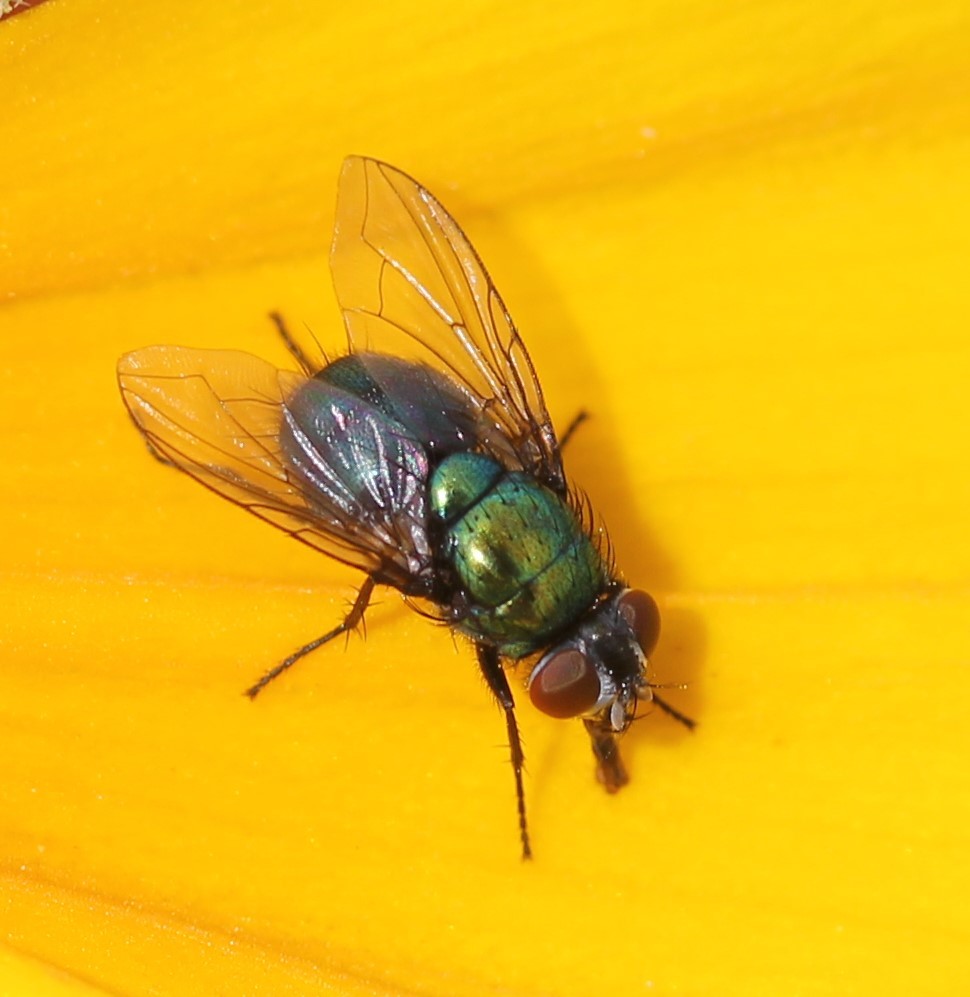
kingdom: Animalia
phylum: Arthropoda
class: Insecta
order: Diptera
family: Calliphoridae
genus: Lucilia
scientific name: Lucilia silvarum
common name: Marsh greenbottle
